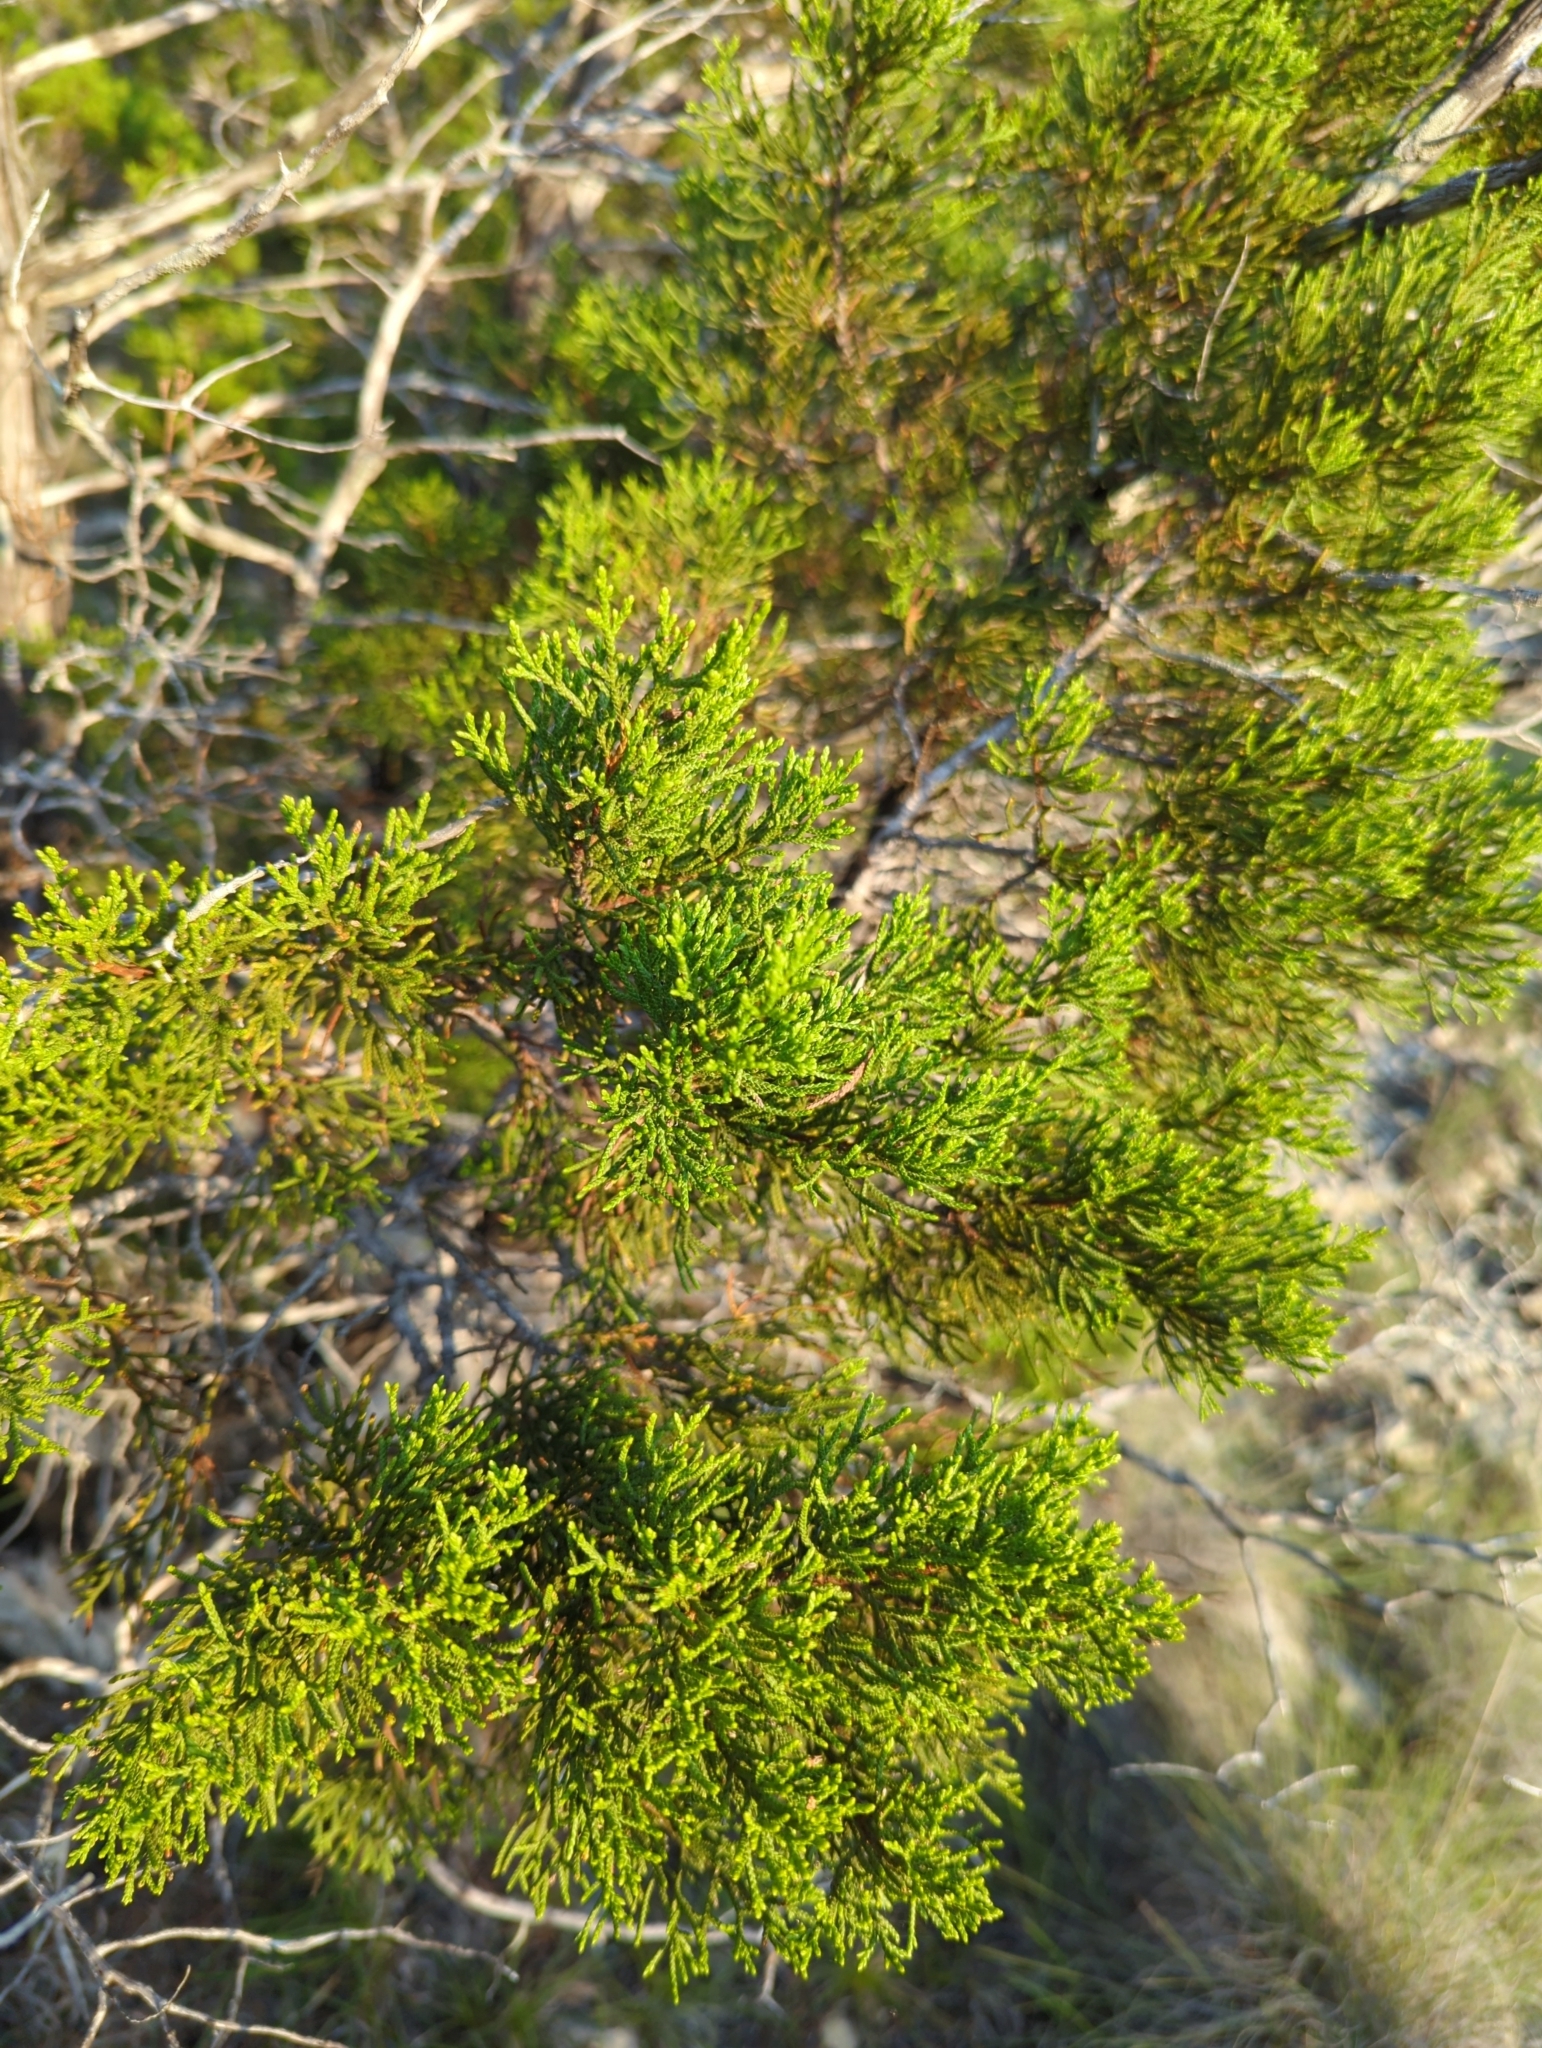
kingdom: Plantae
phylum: Tracheophyta
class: Pinopsida
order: Pinales
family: Cupressaceae
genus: Juniperus
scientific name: Juniperus ashei
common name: Mexican juniper
